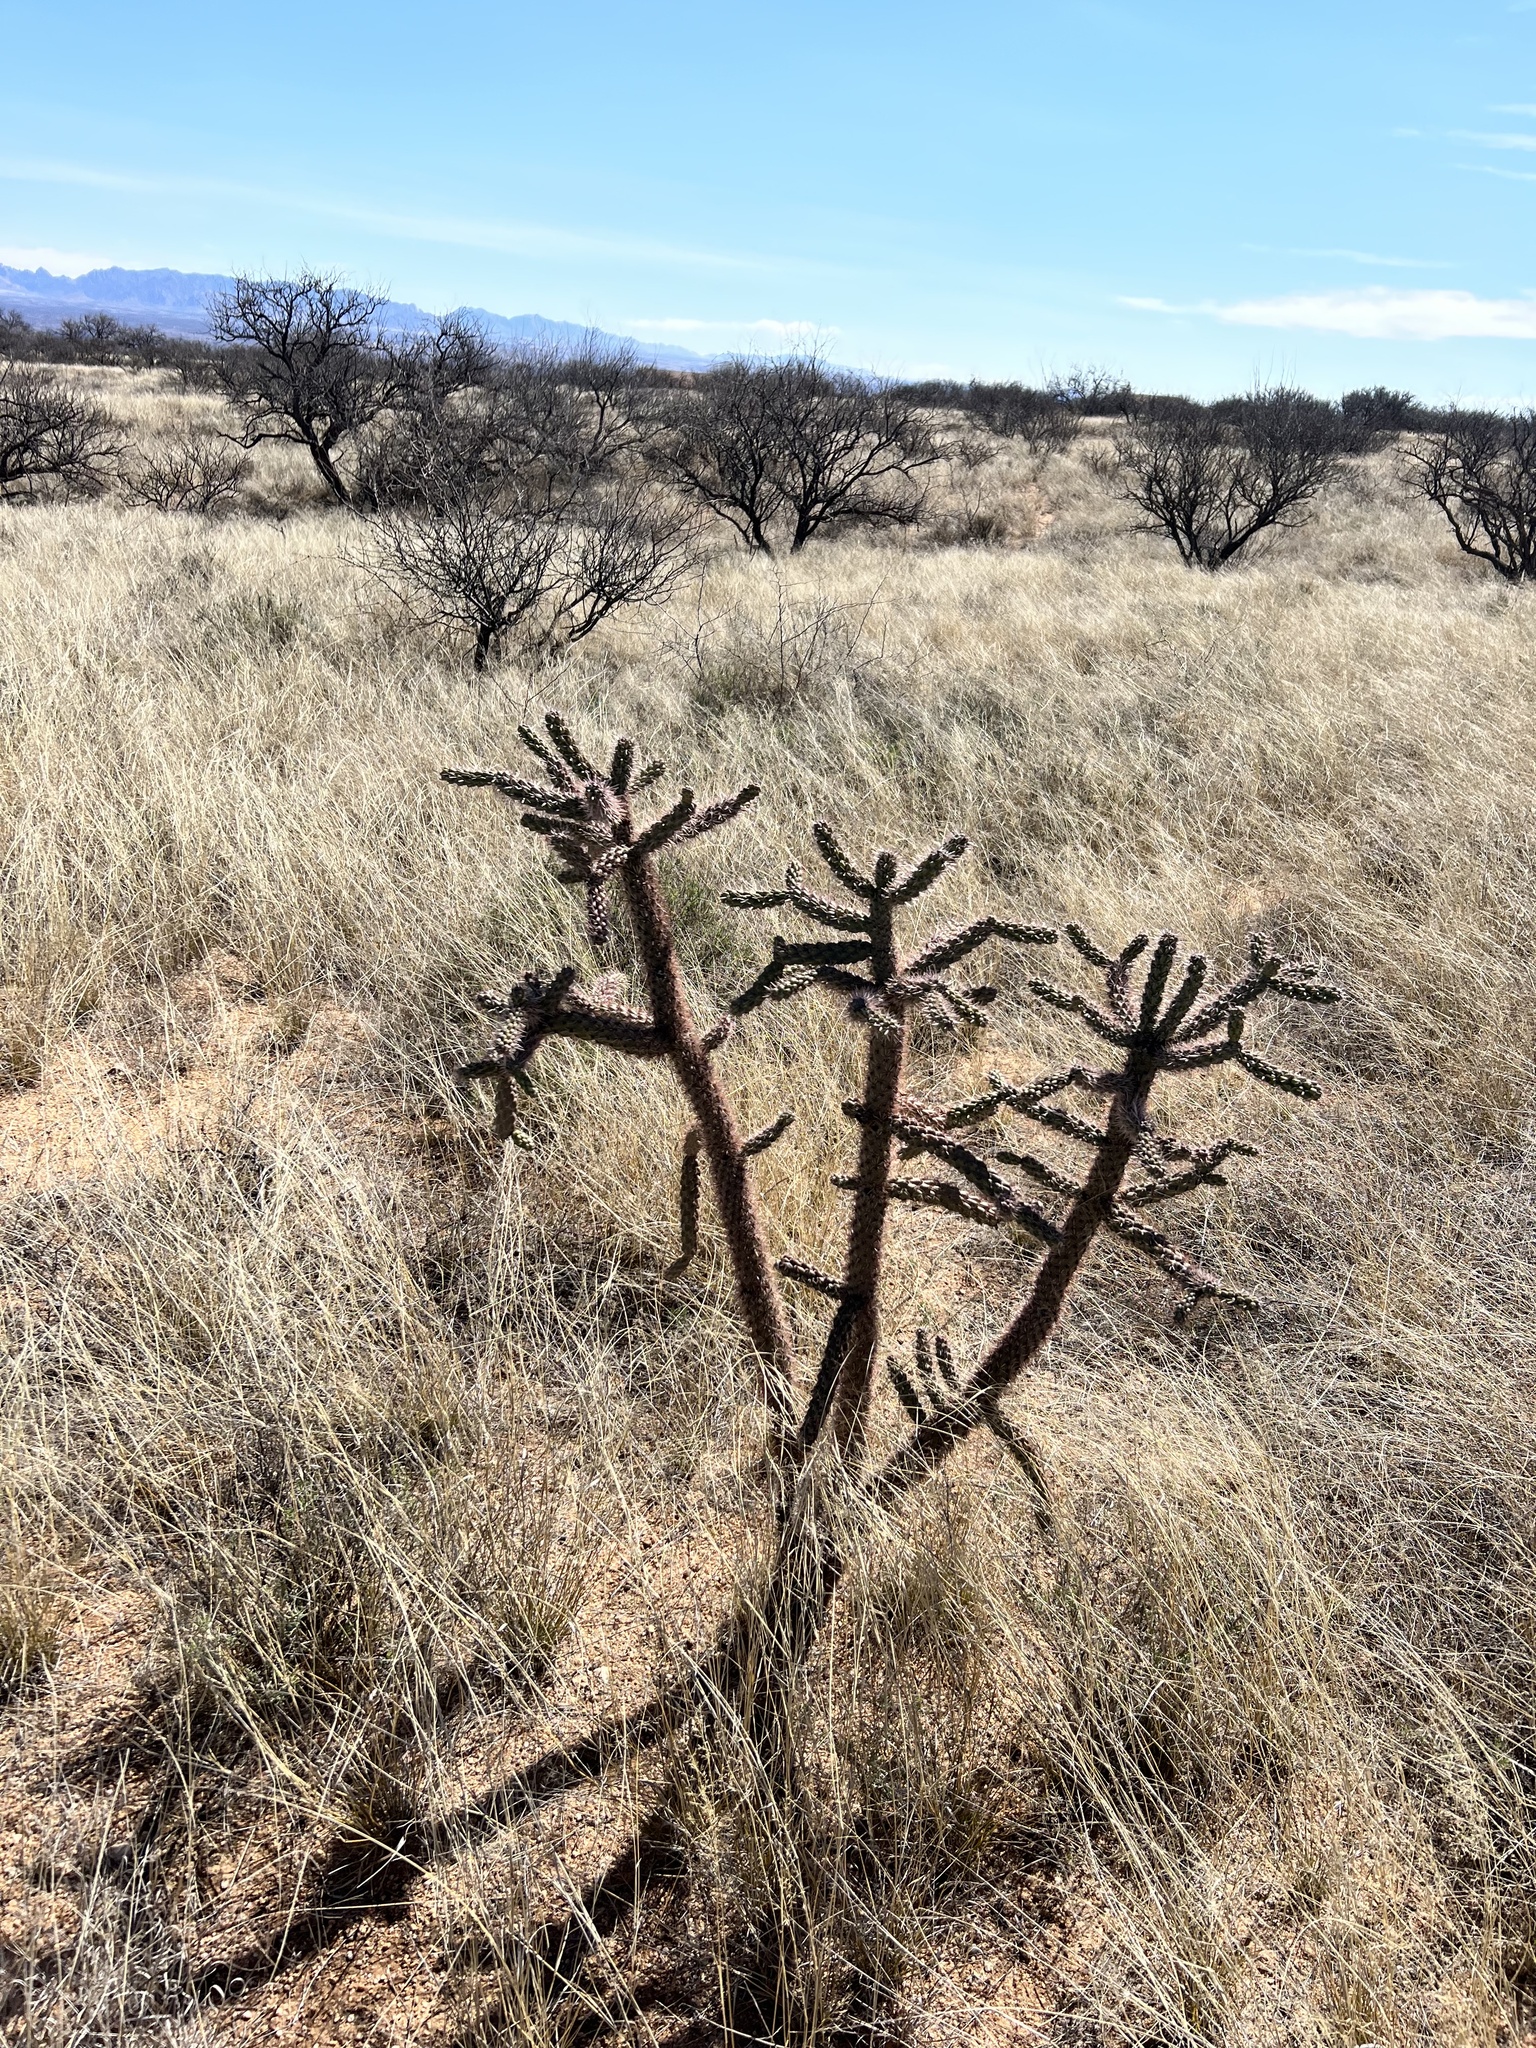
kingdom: Plantae
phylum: Tracheophyta
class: Magnoliopsida
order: Caryophyllales
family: Cactaceae
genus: Cylindropuntia
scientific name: Cylindropuntia imbricata
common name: Candelabrum cactus
